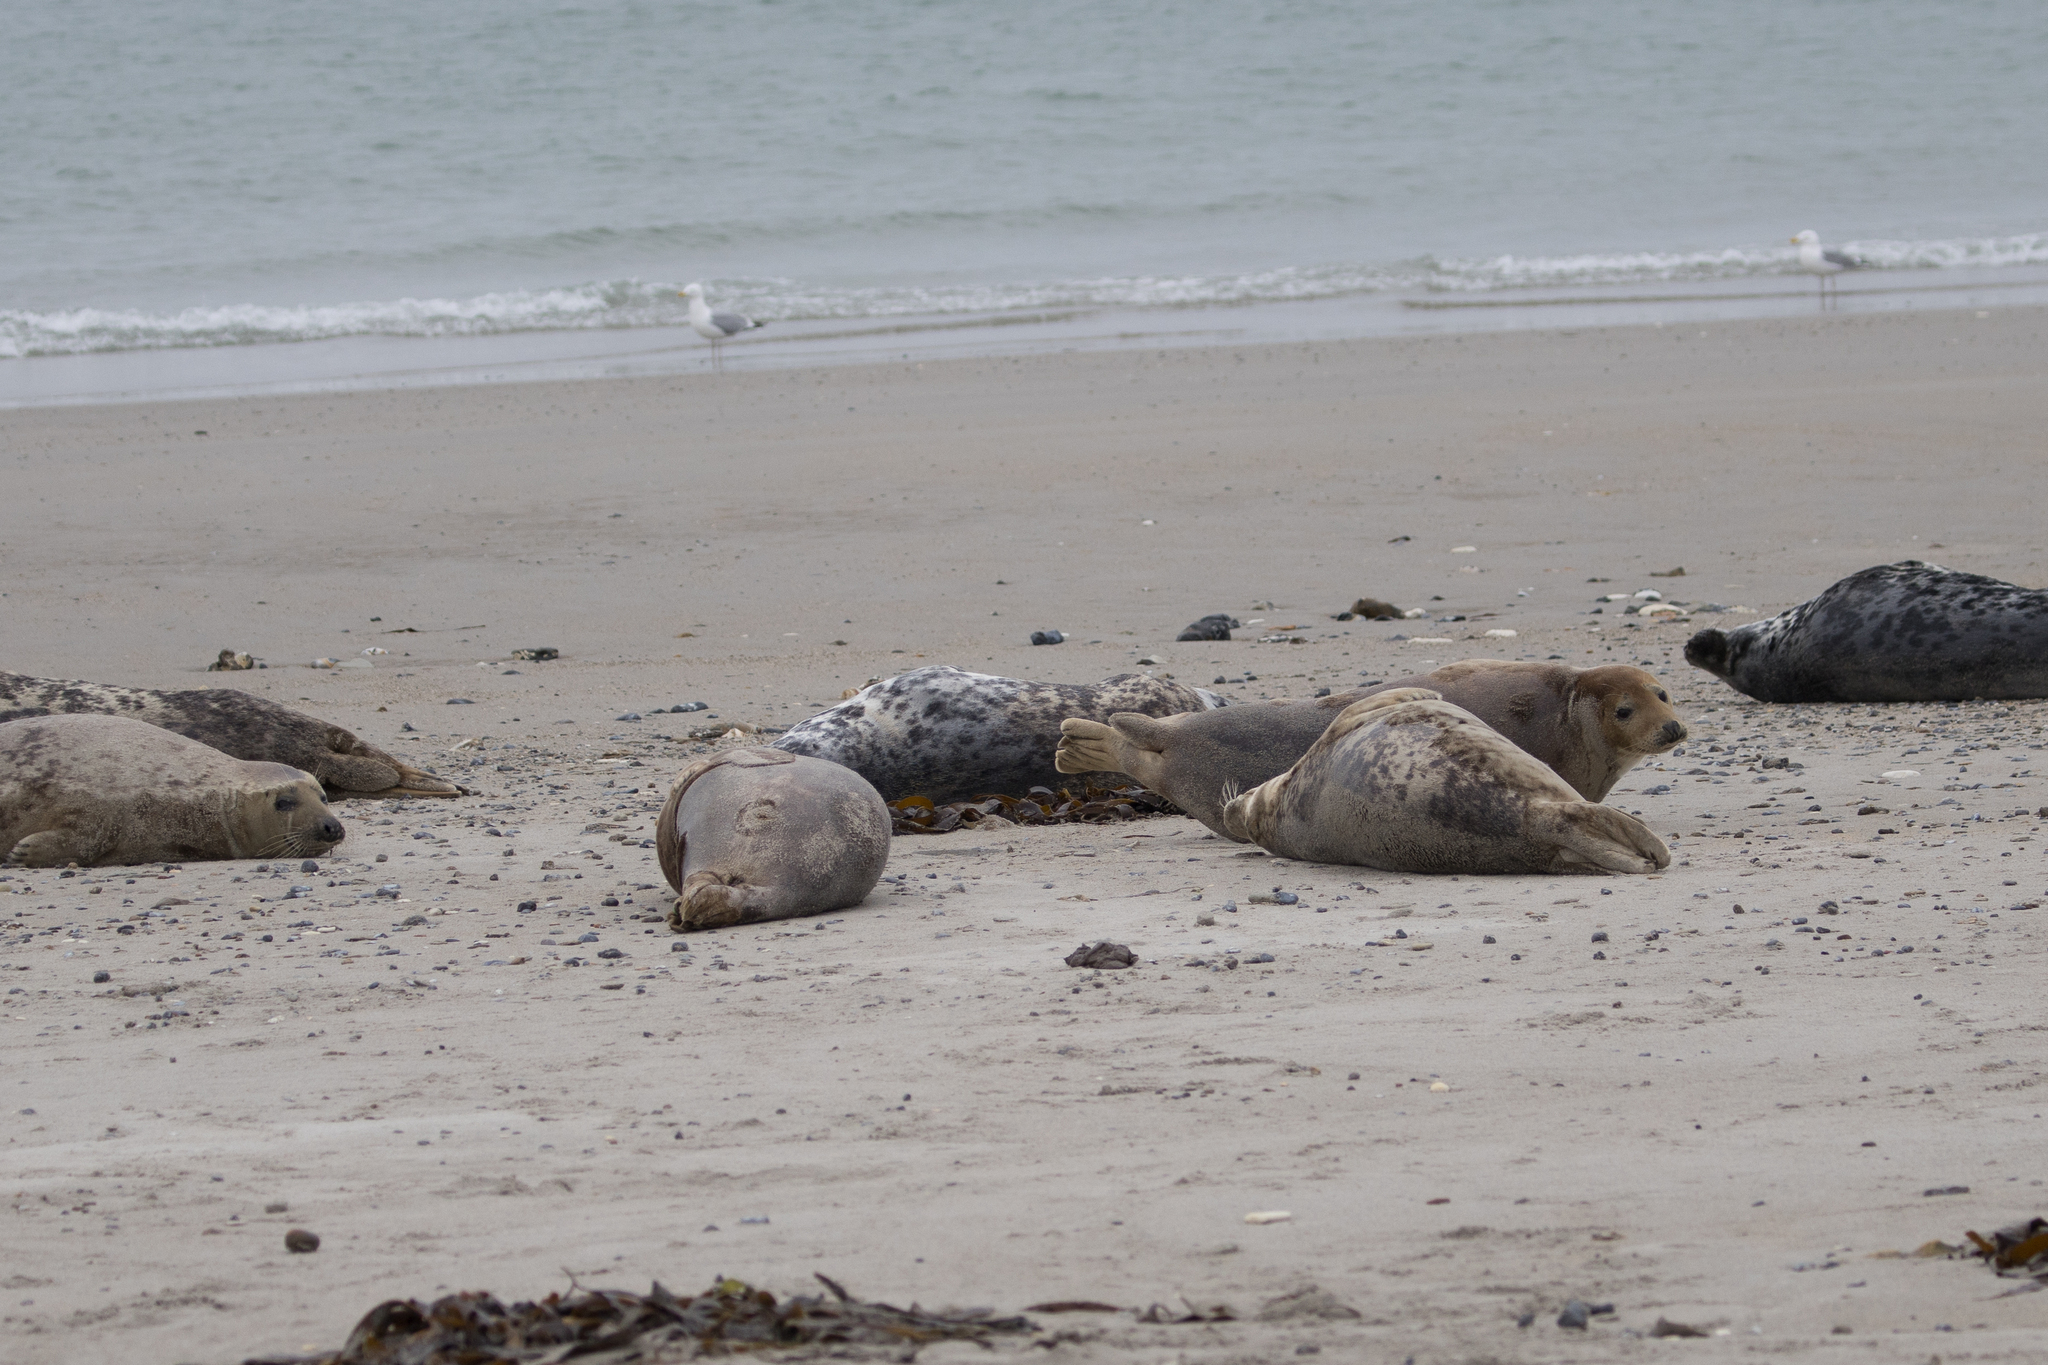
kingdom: Animalia
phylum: Chordata
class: Mammalia
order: Carnivora
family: Phocidae
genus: Halichoerus
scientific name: Halichoerus grypus
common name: Grey seal
